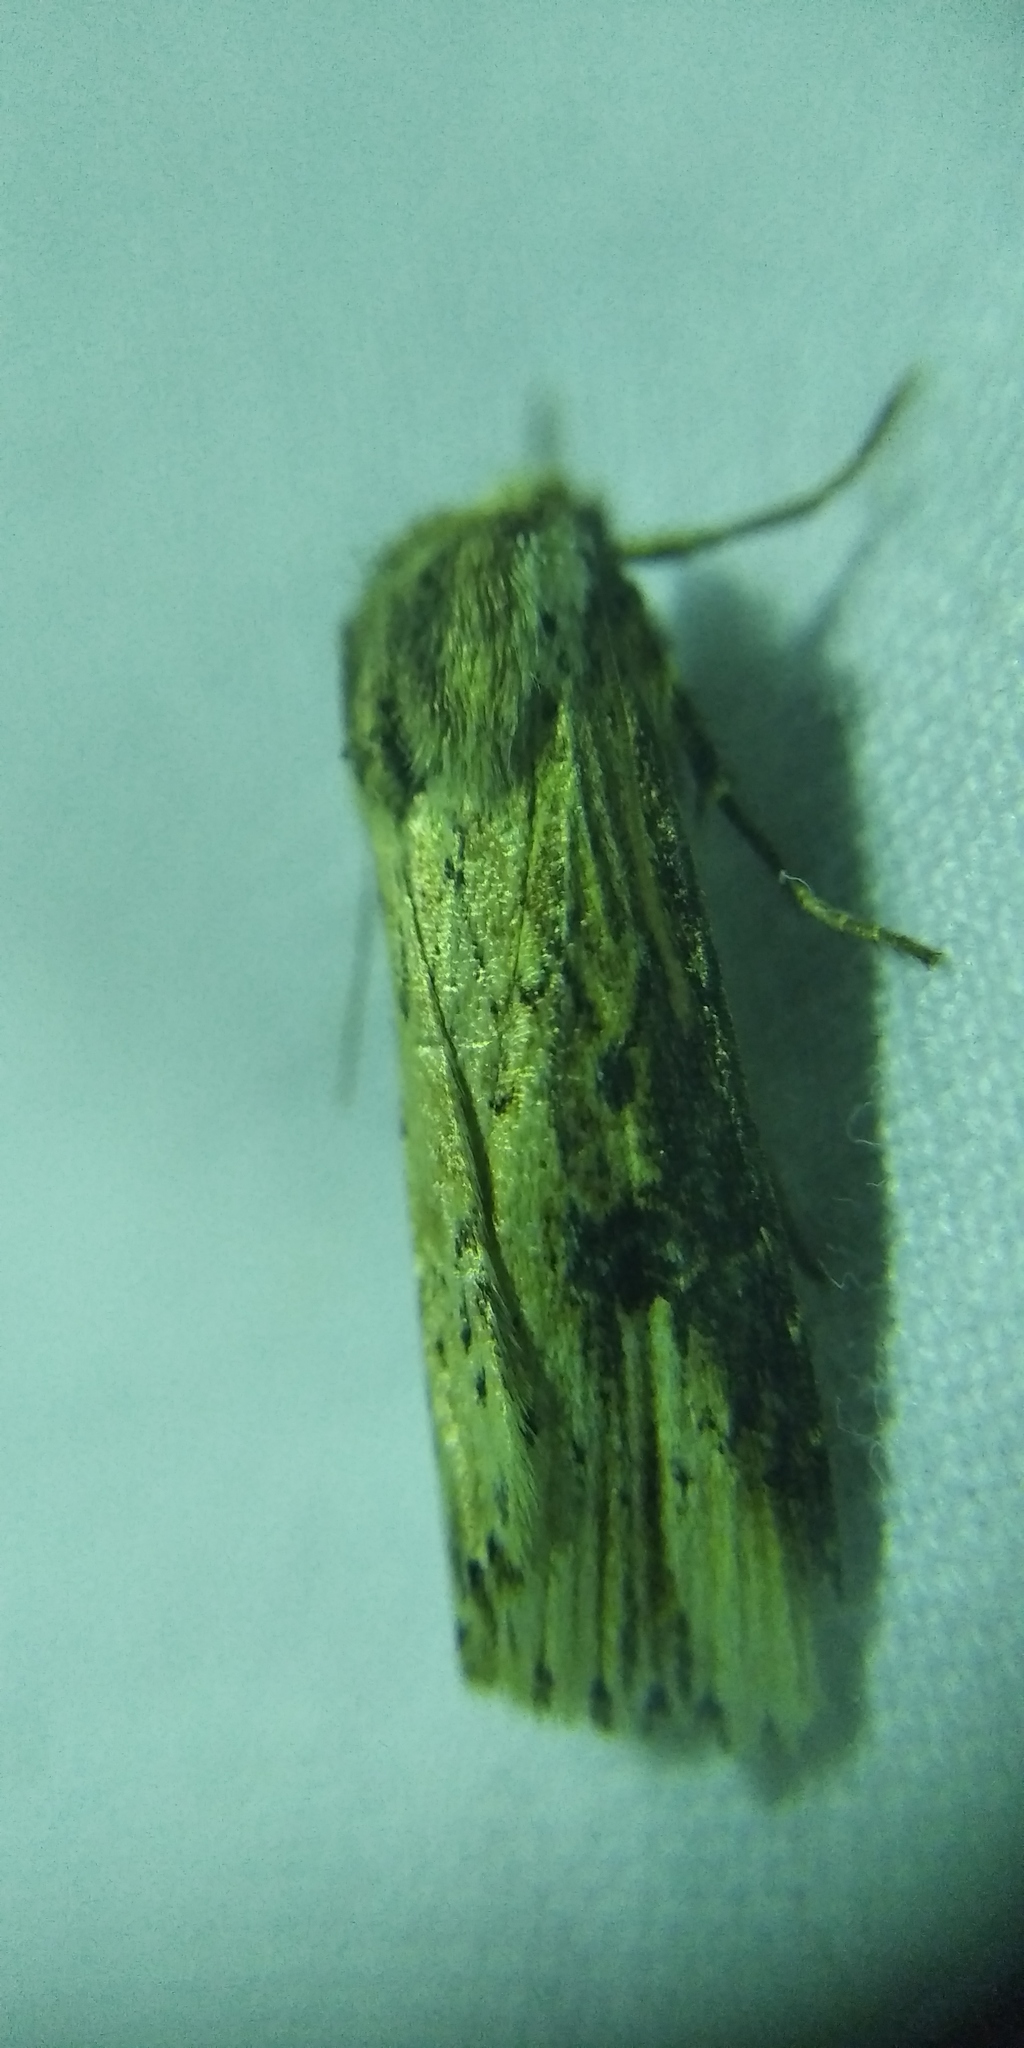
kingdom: Animalia
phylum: Arthropoda
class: Insecta
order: Lepidoptera
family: Noctuidae
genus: Axylia
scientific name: Axylia putris
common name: Flame
